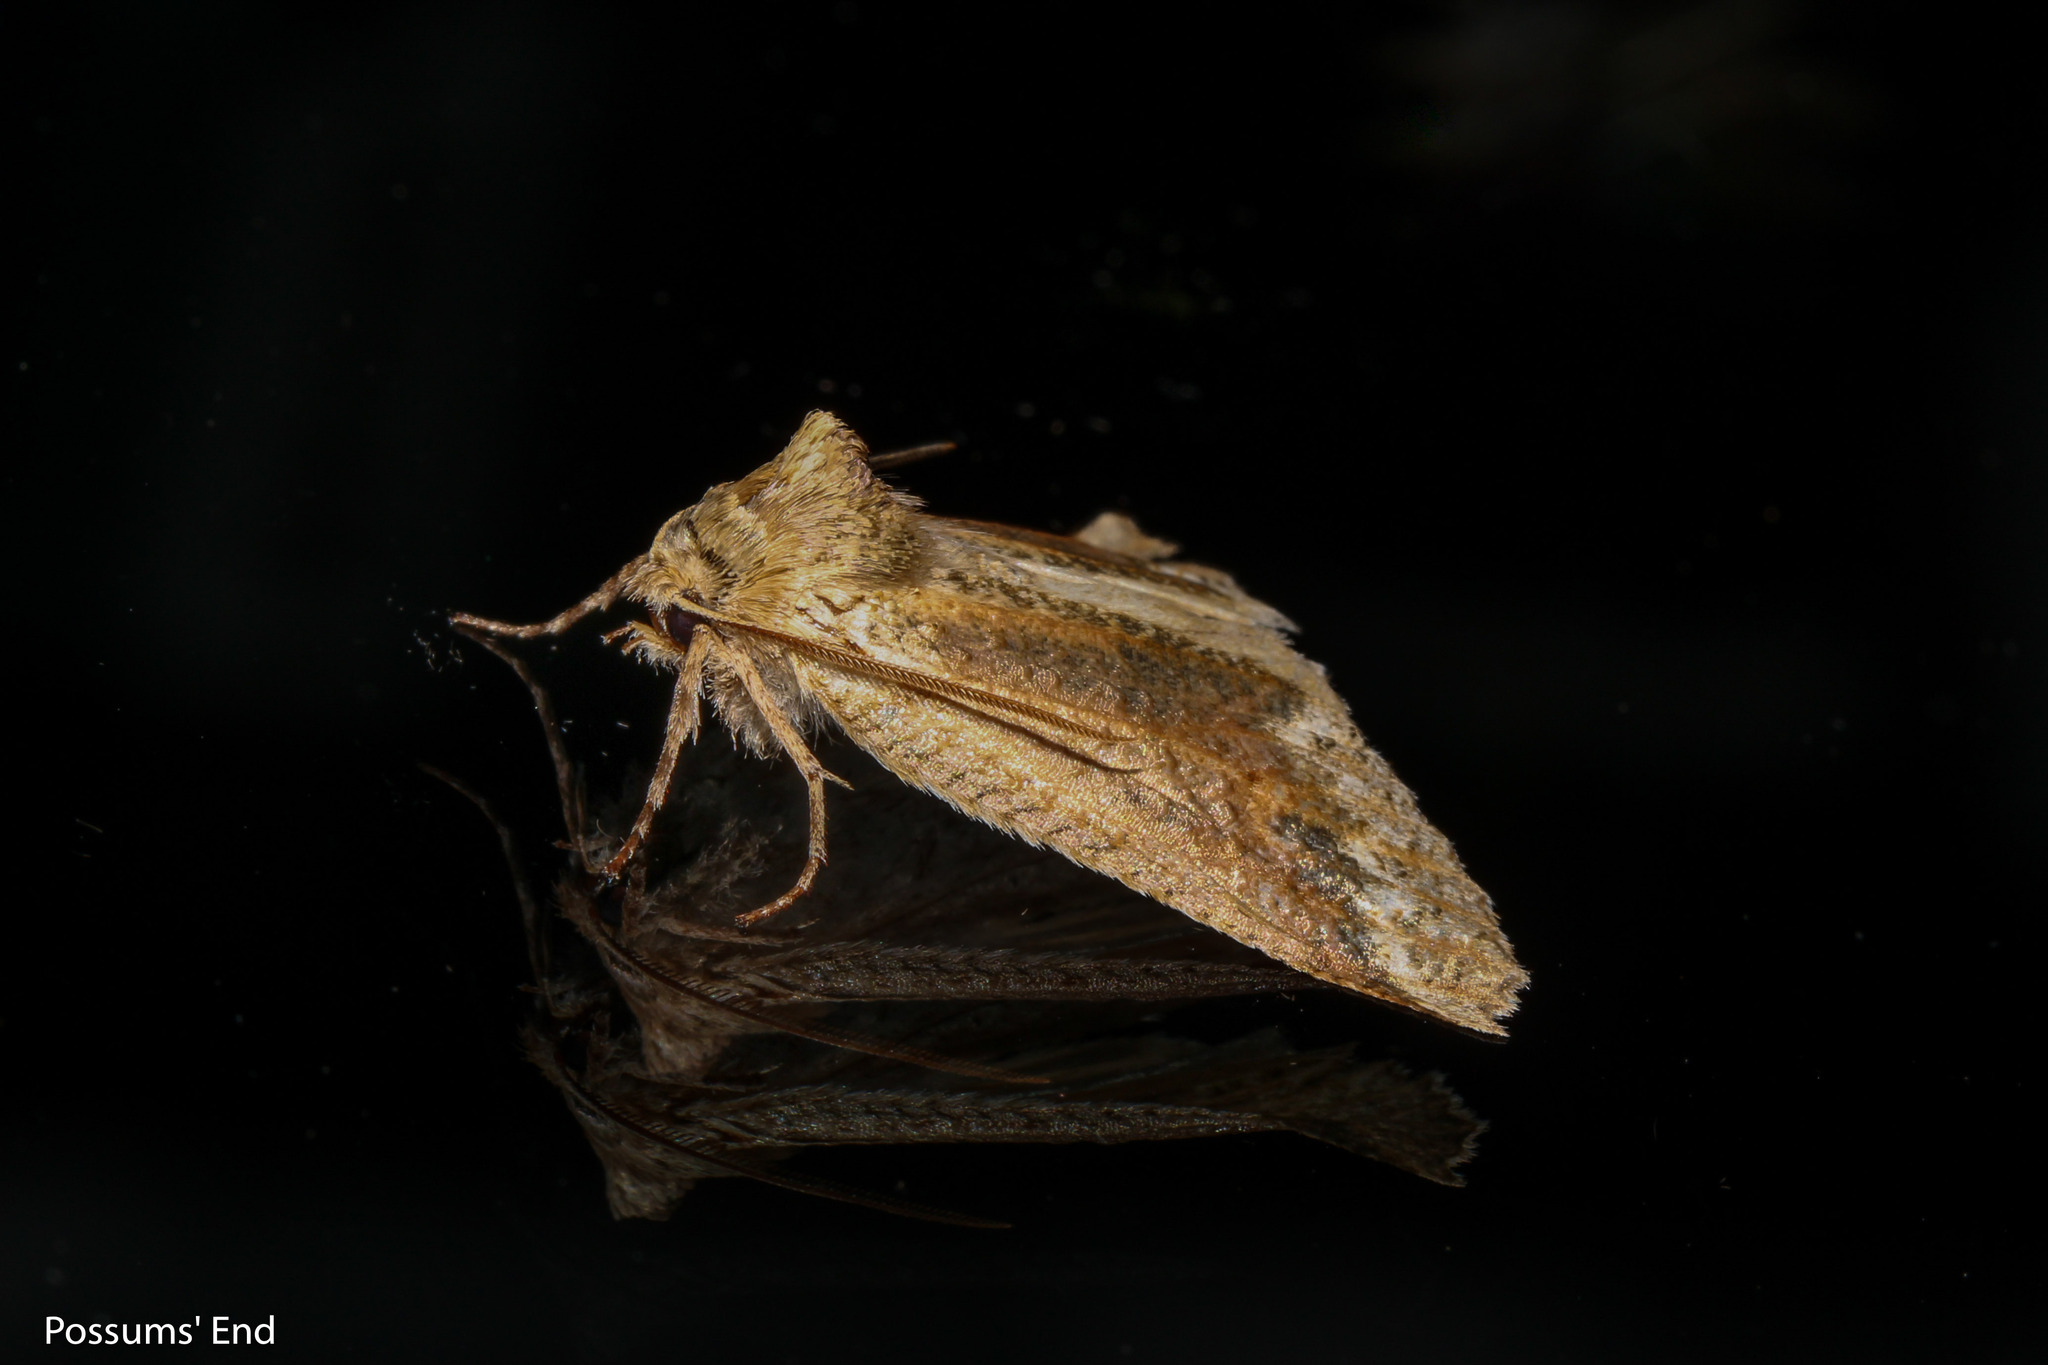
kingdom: Animalia
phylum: Arthropoda
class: Insecta
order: Lepidoptera
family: Geometridae
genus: Declana
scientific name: Declana
